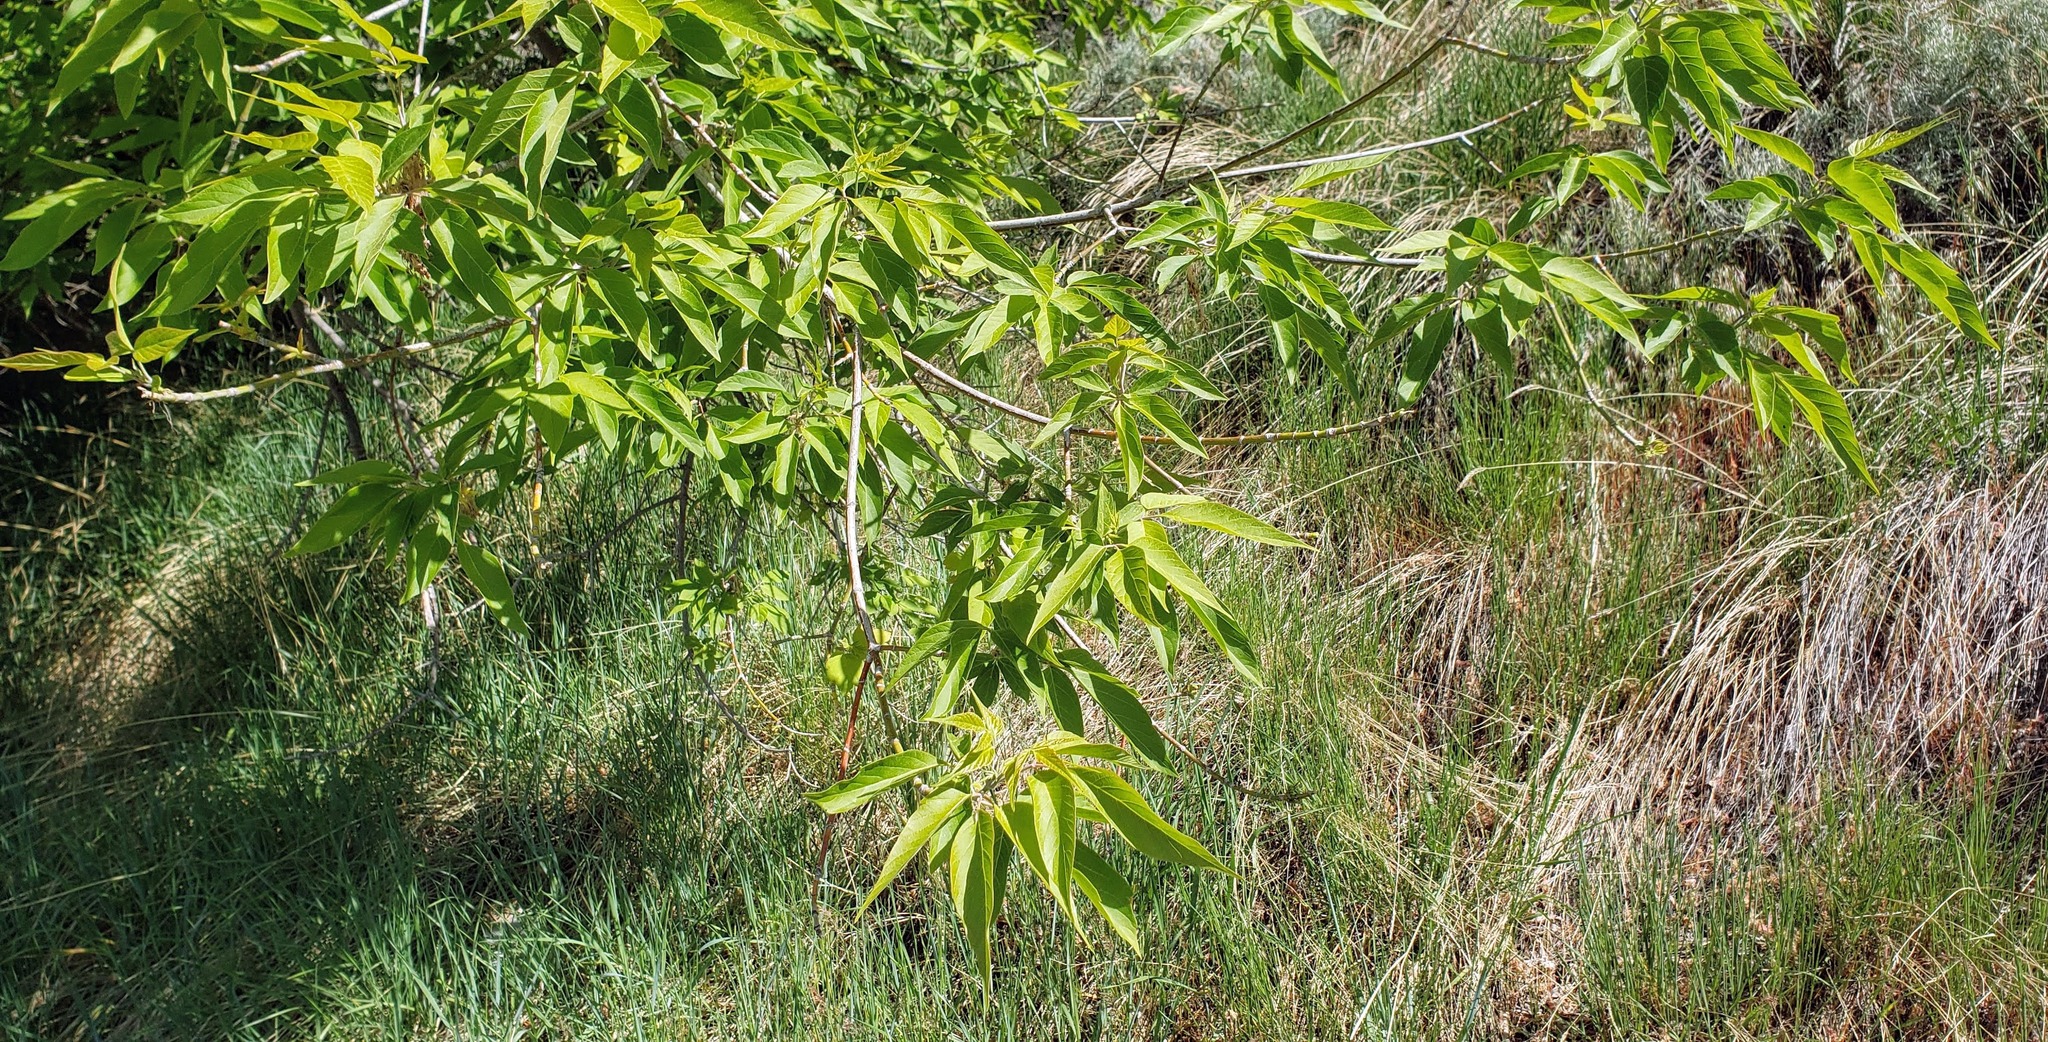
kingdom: Plantae
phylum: Tracheophyta
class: Magnoliopsida
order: Sapindales
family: Sapindaceae
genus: Acer
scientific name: Acer negundo
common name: Ashleaf maple
